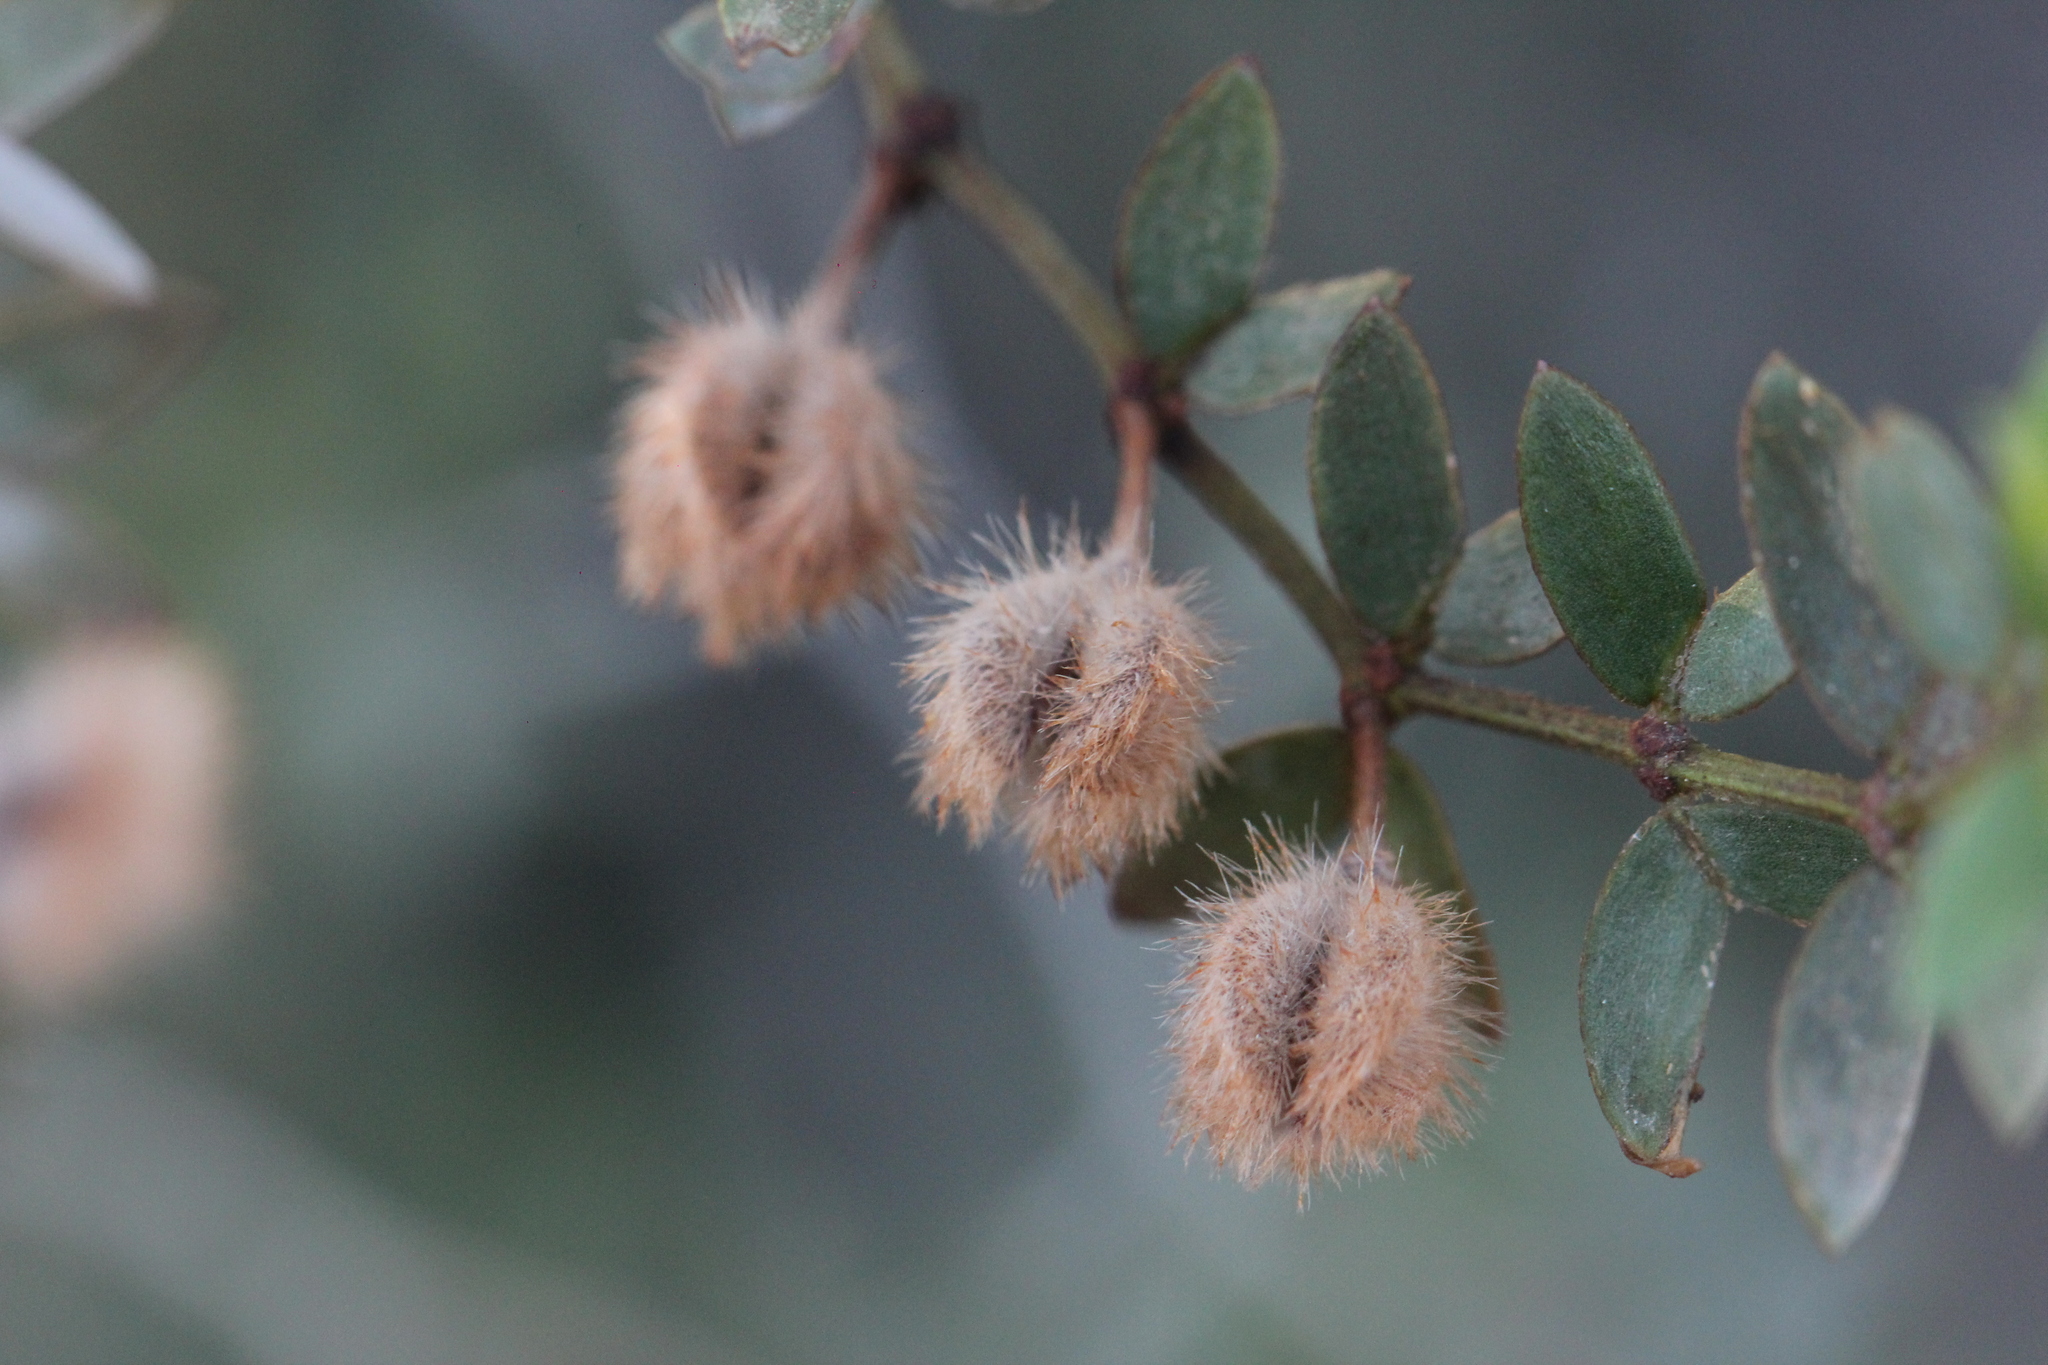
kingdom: Plantae
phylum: Tracheophyta
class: Magnoliopsida
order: Zygophyllales
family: Zygophyllaceae
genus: Larrea
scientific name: Larrea divaricata
